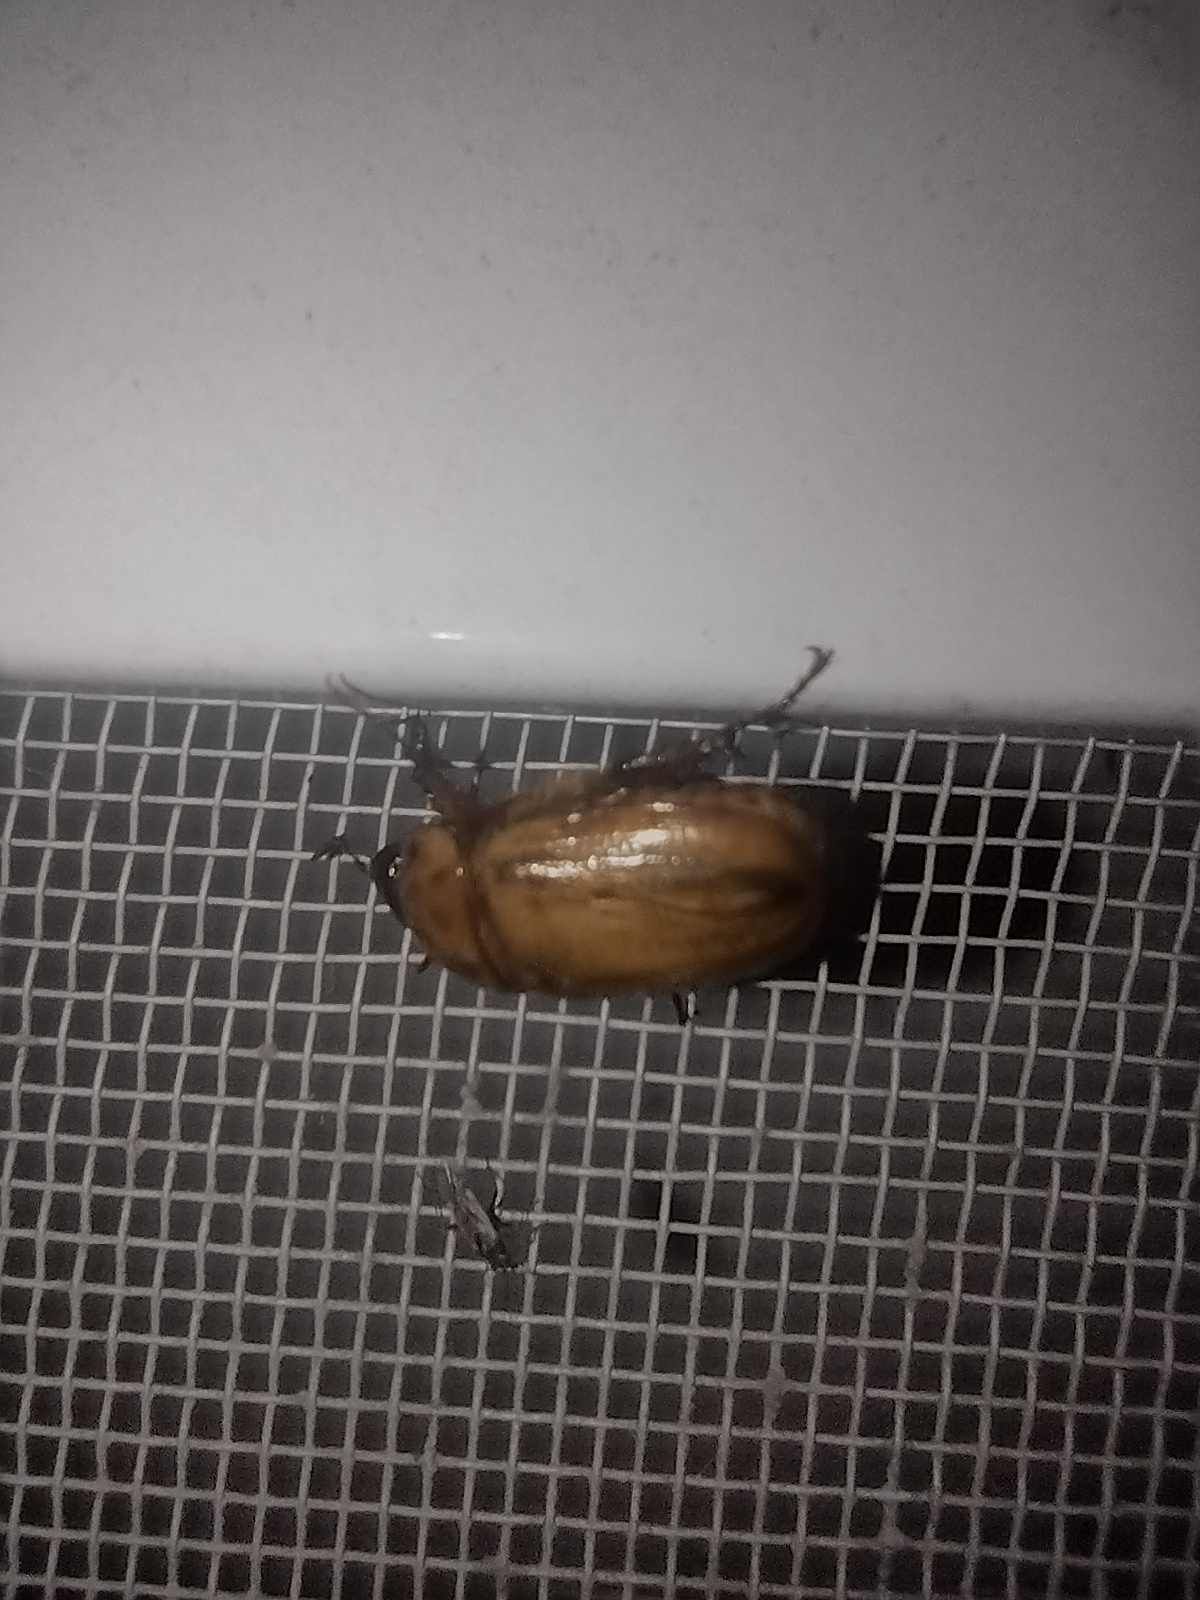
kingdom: Animalia
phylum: Arthropoda
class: Insecta
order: Coleoptera
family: Scarabaeidae
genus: Cyclocephala
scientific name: Cyclocephala signaticollis
